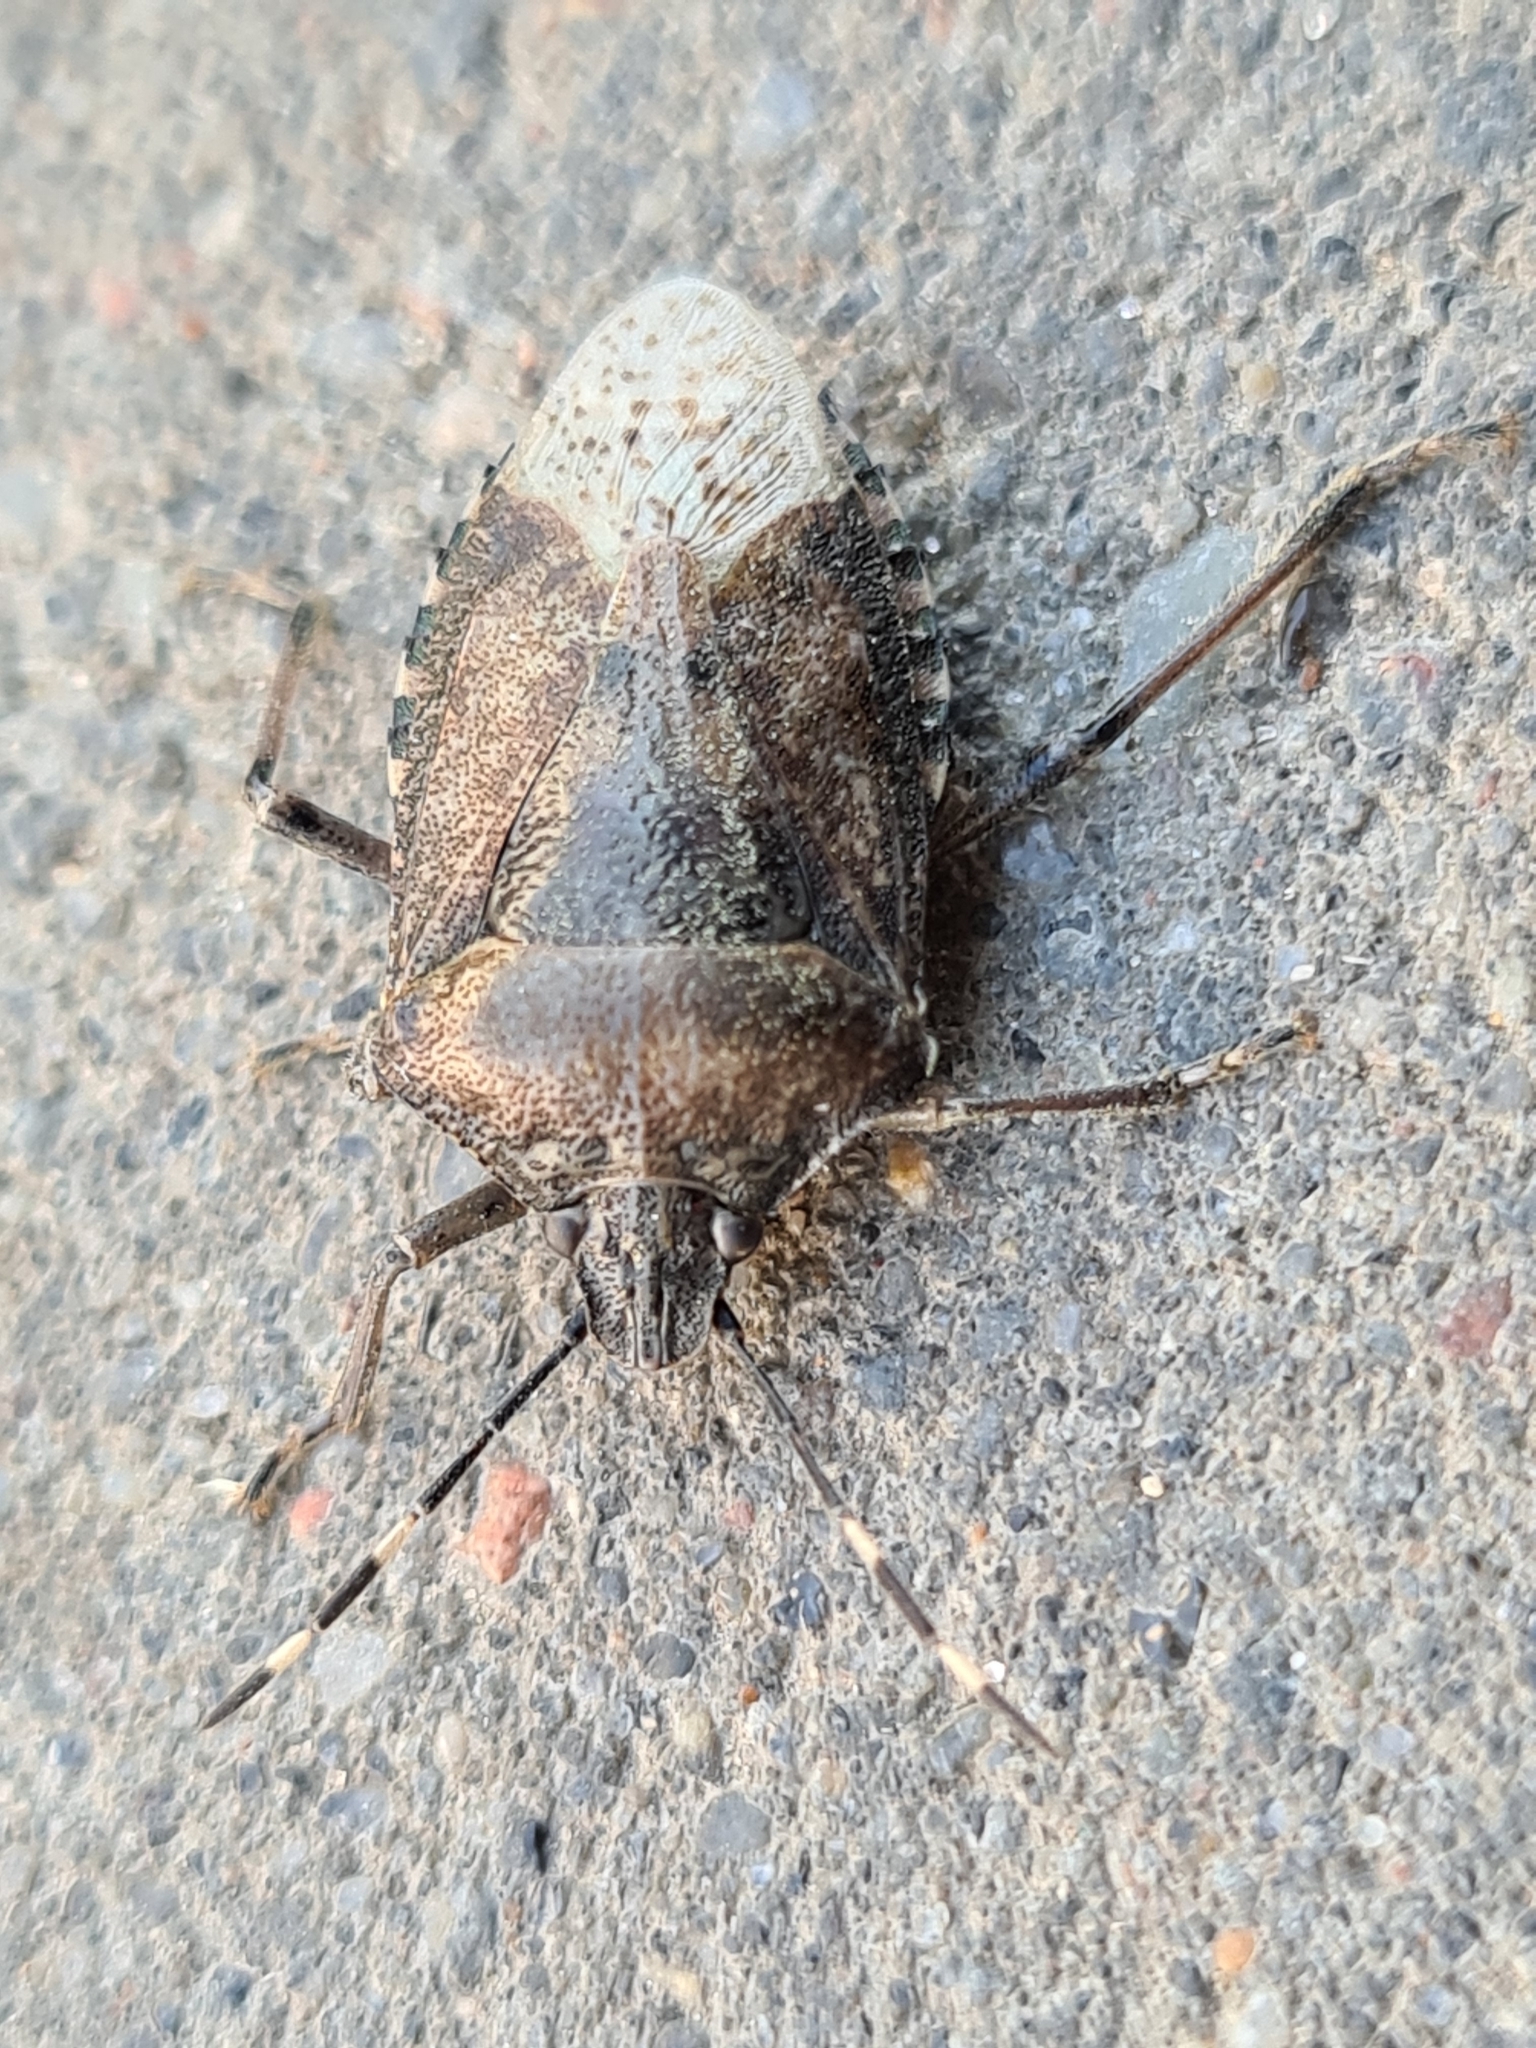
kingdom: Animalia
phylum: Arthropoda
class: Insecta
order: Hemiptera
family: Pentatomidae
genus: Rhaphigaster
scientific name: Rhaphigaster nebulosa
